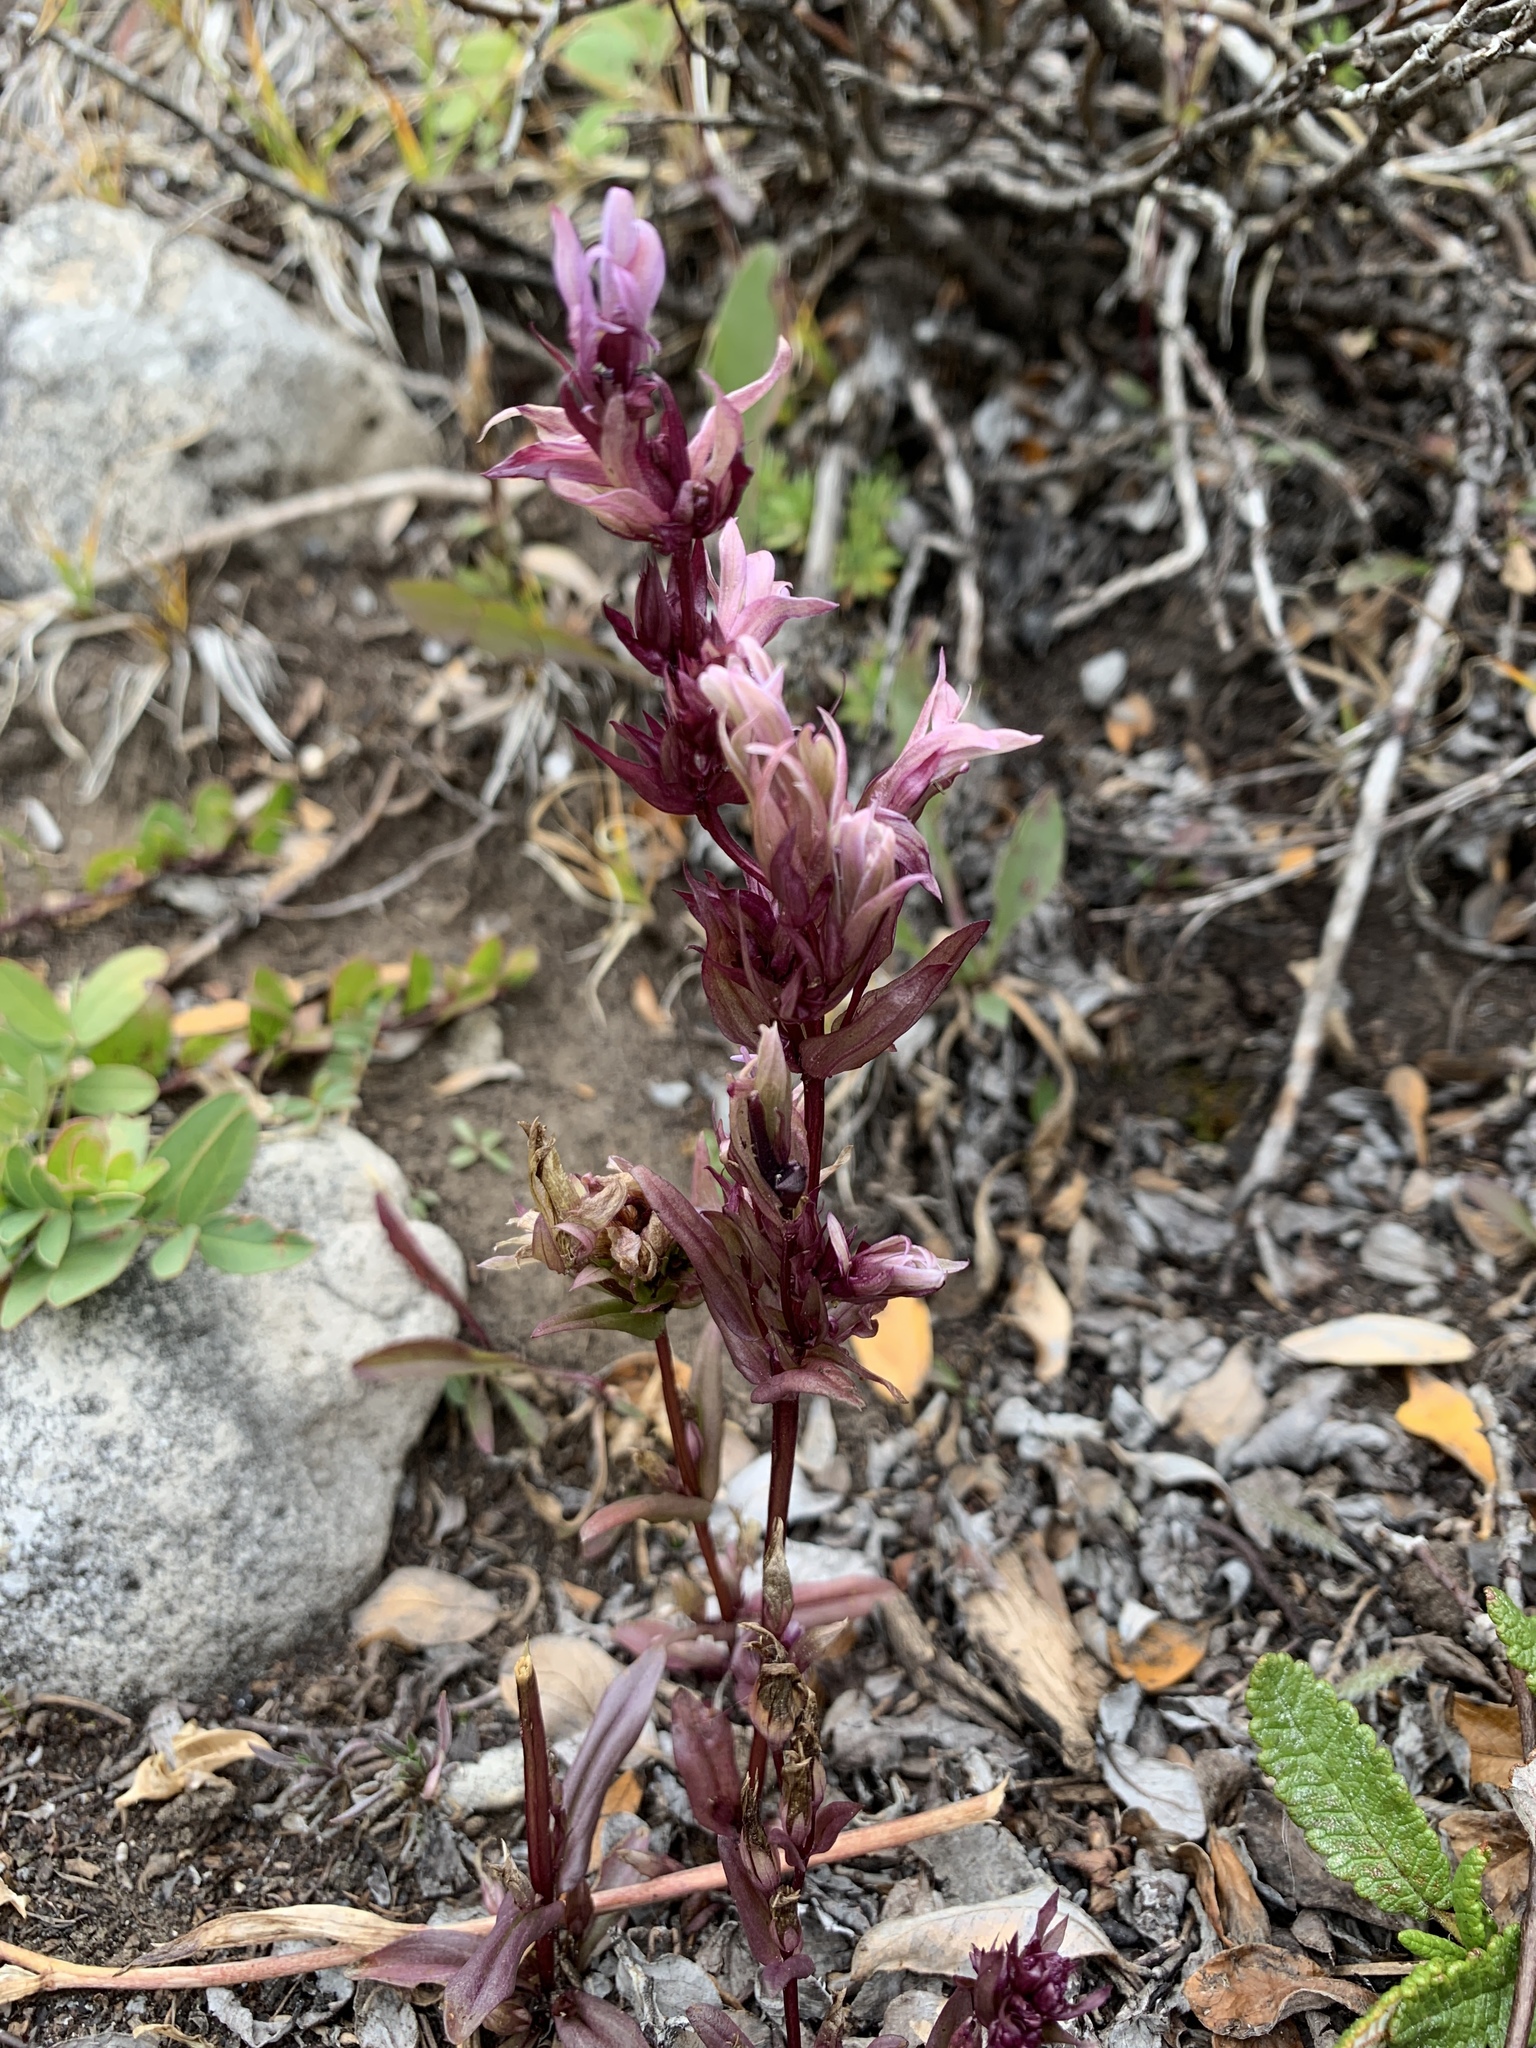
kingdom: Plantae
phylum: Tracheophyta
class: Magnoliopsida
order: Gentianales
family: Gentianaceae
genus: Gentianella
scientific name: Gentianella amarella
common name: Autumn gentian
